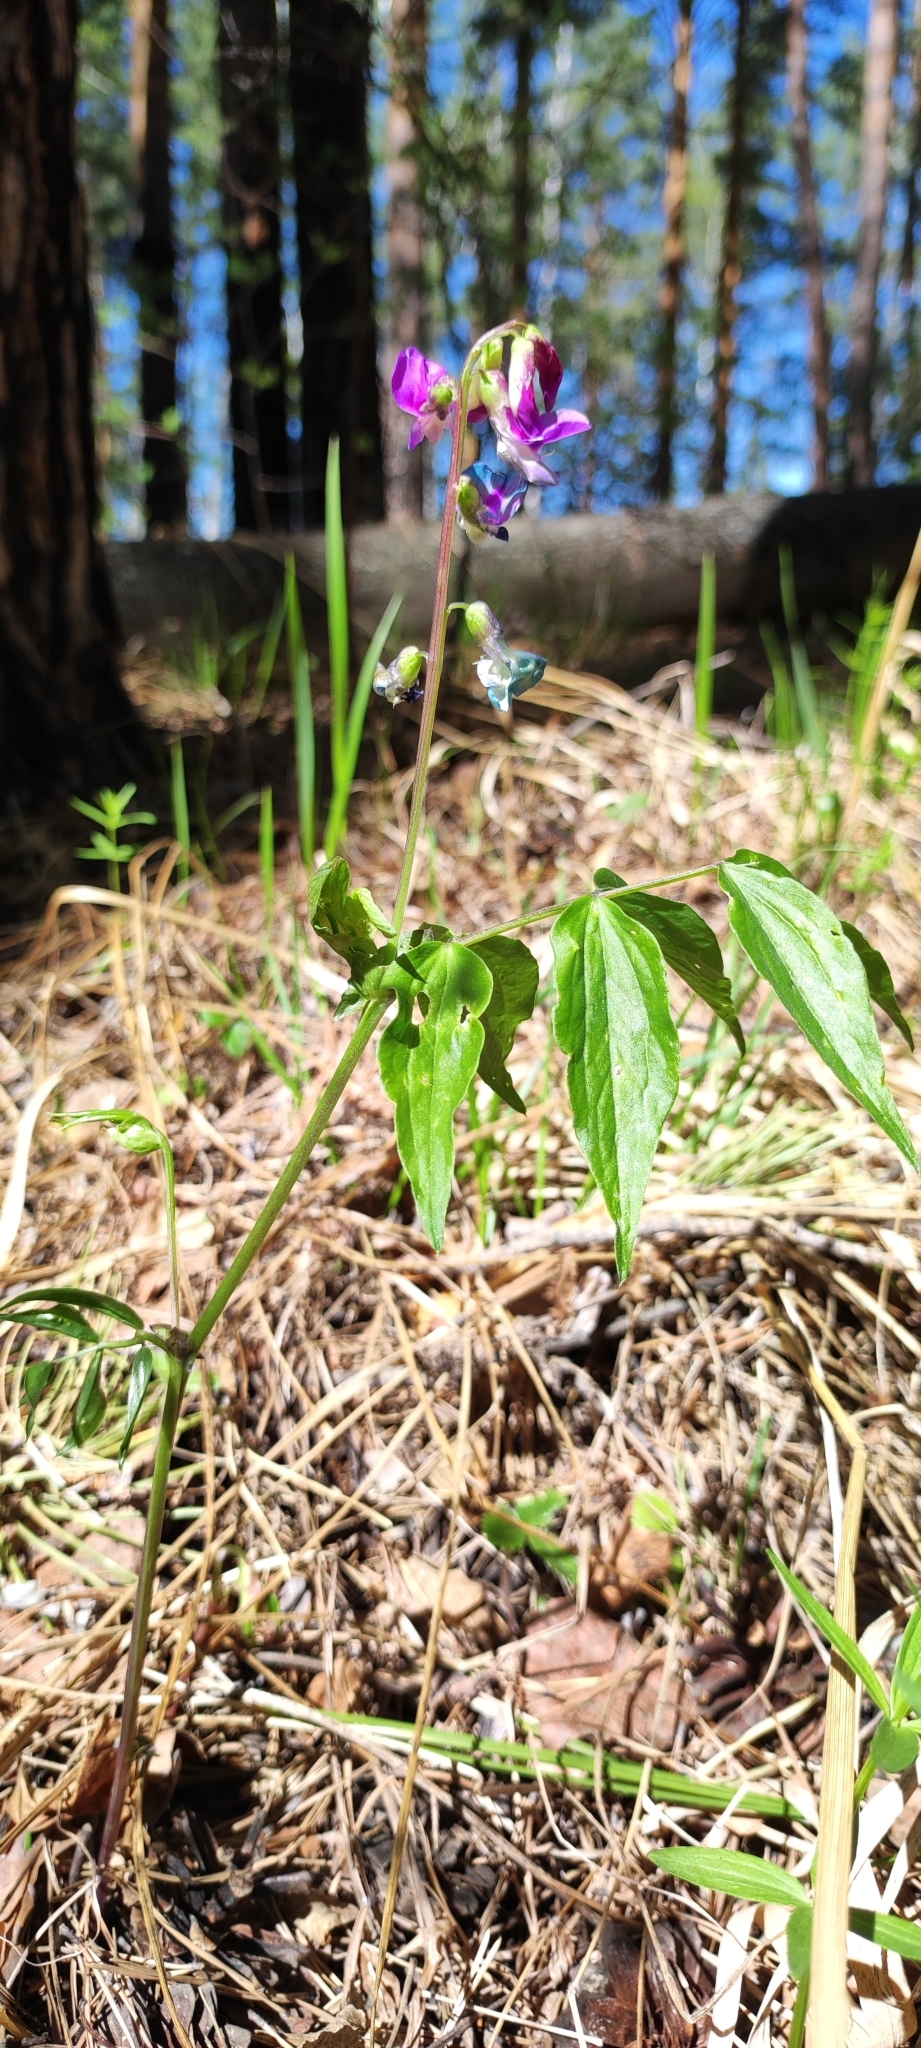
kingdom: Plantae
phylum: Tracheophyta
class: Magnoliopsida
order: Fabales
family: Fabaceae
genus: Lathyrus
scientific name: Lathyrus vernus
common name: Spring pea
